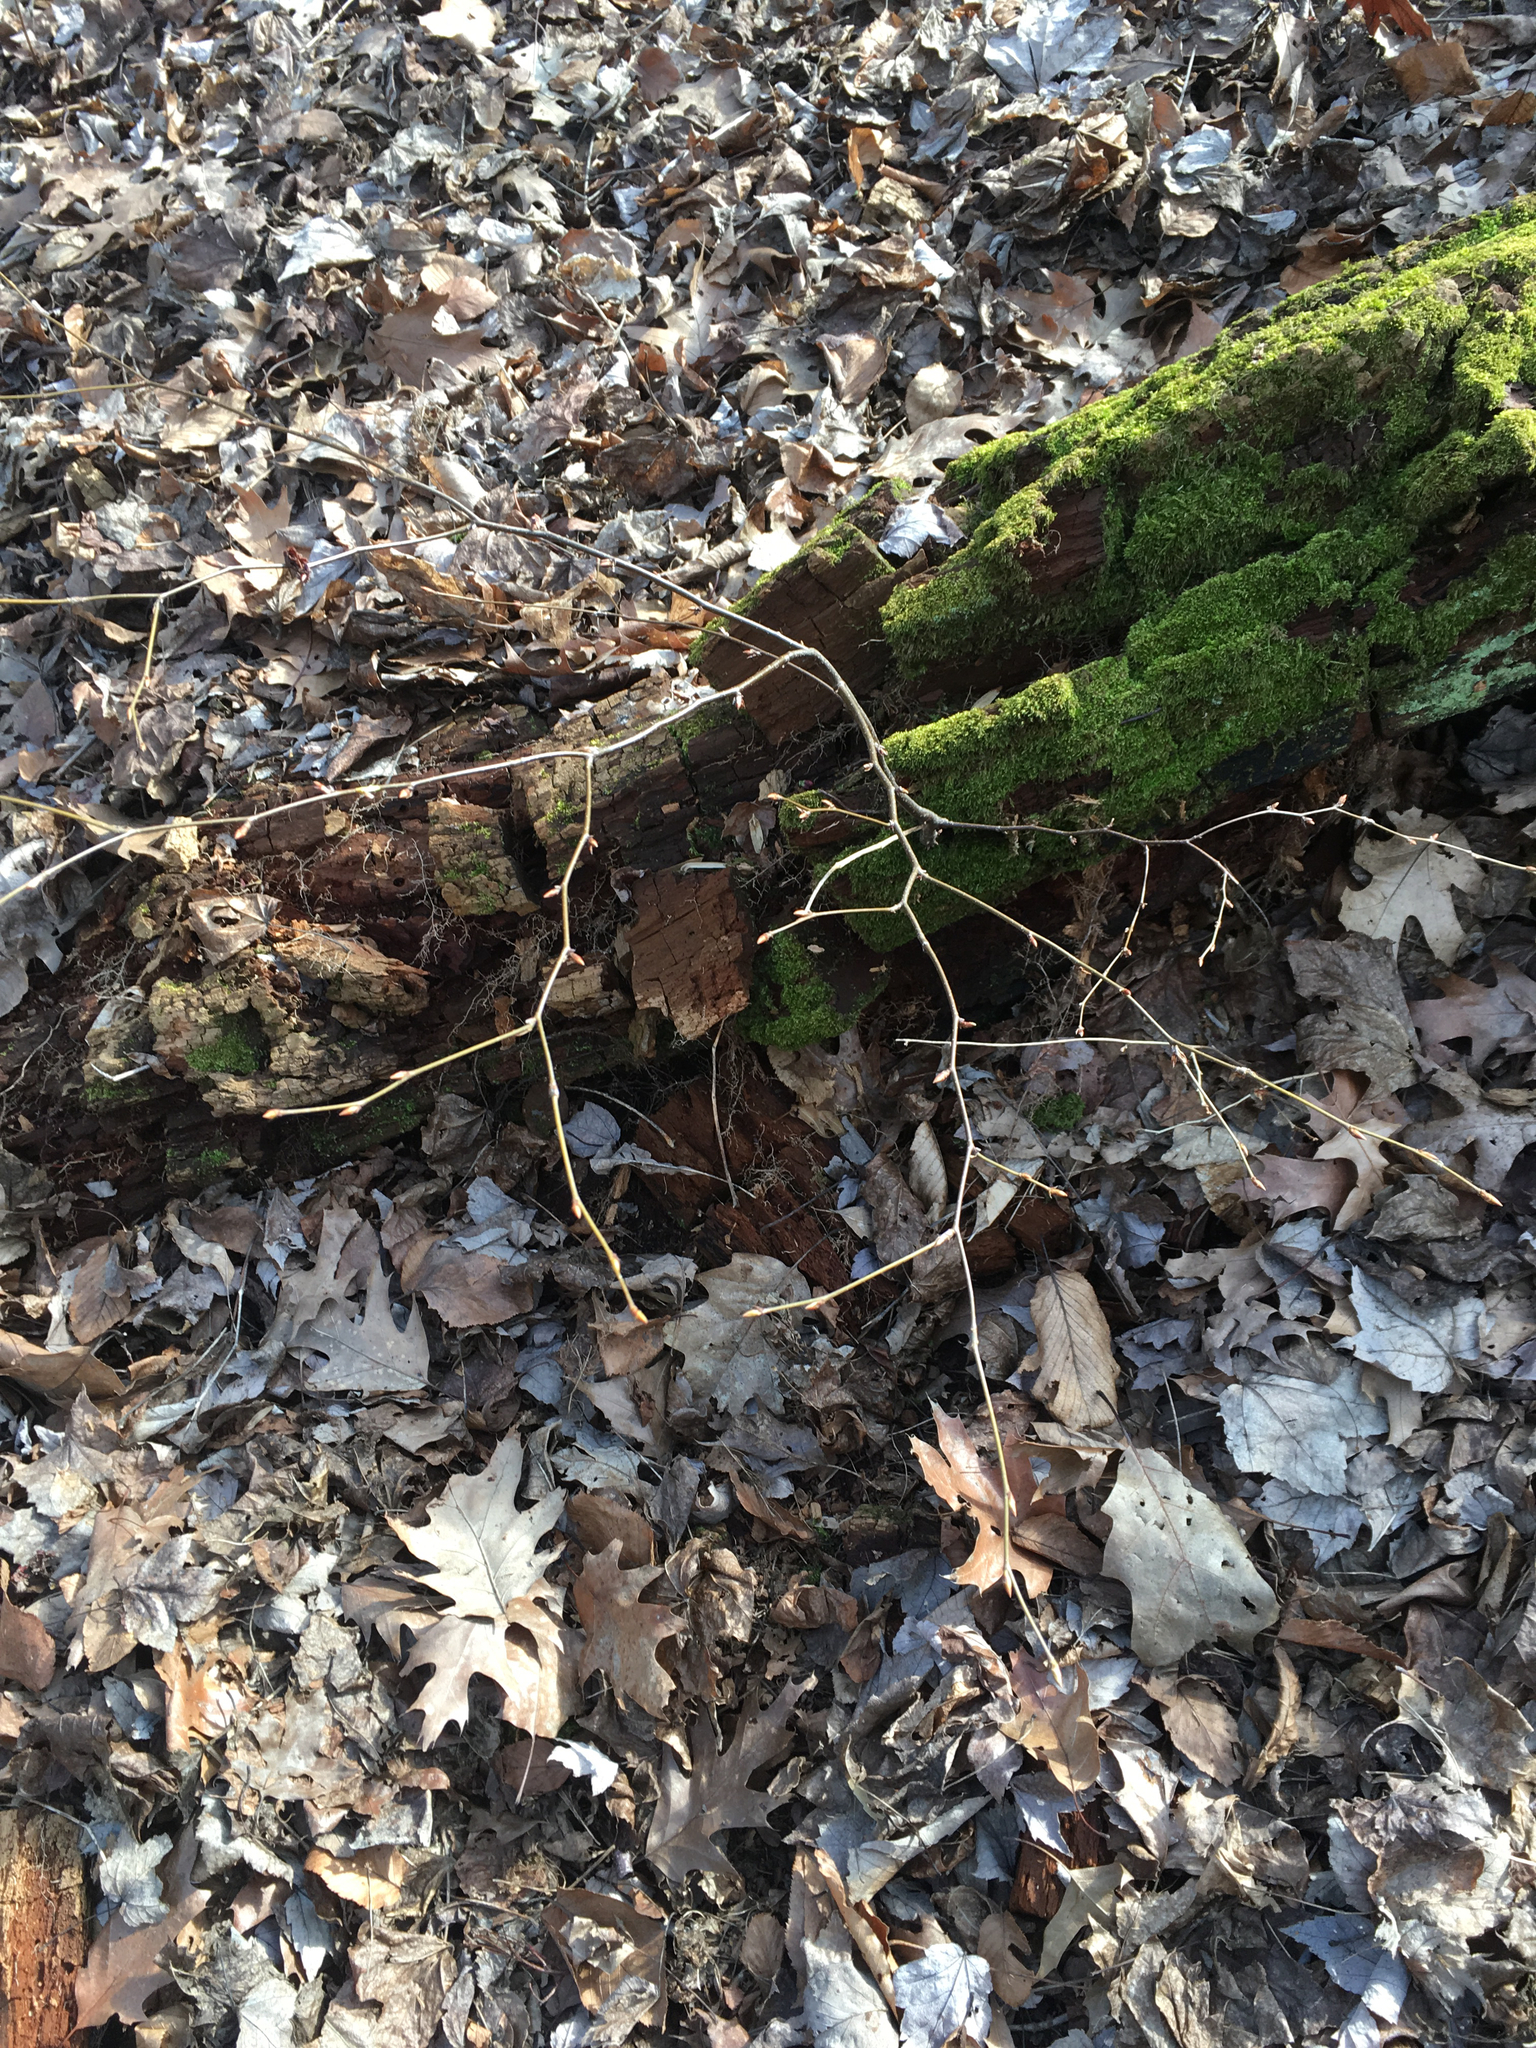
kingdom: Plantae
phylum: Tracheophyta
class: Magnoliopsida
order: Fagales
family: Betulaceae
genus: Betula
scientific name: Betula lenta
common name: Black birch
